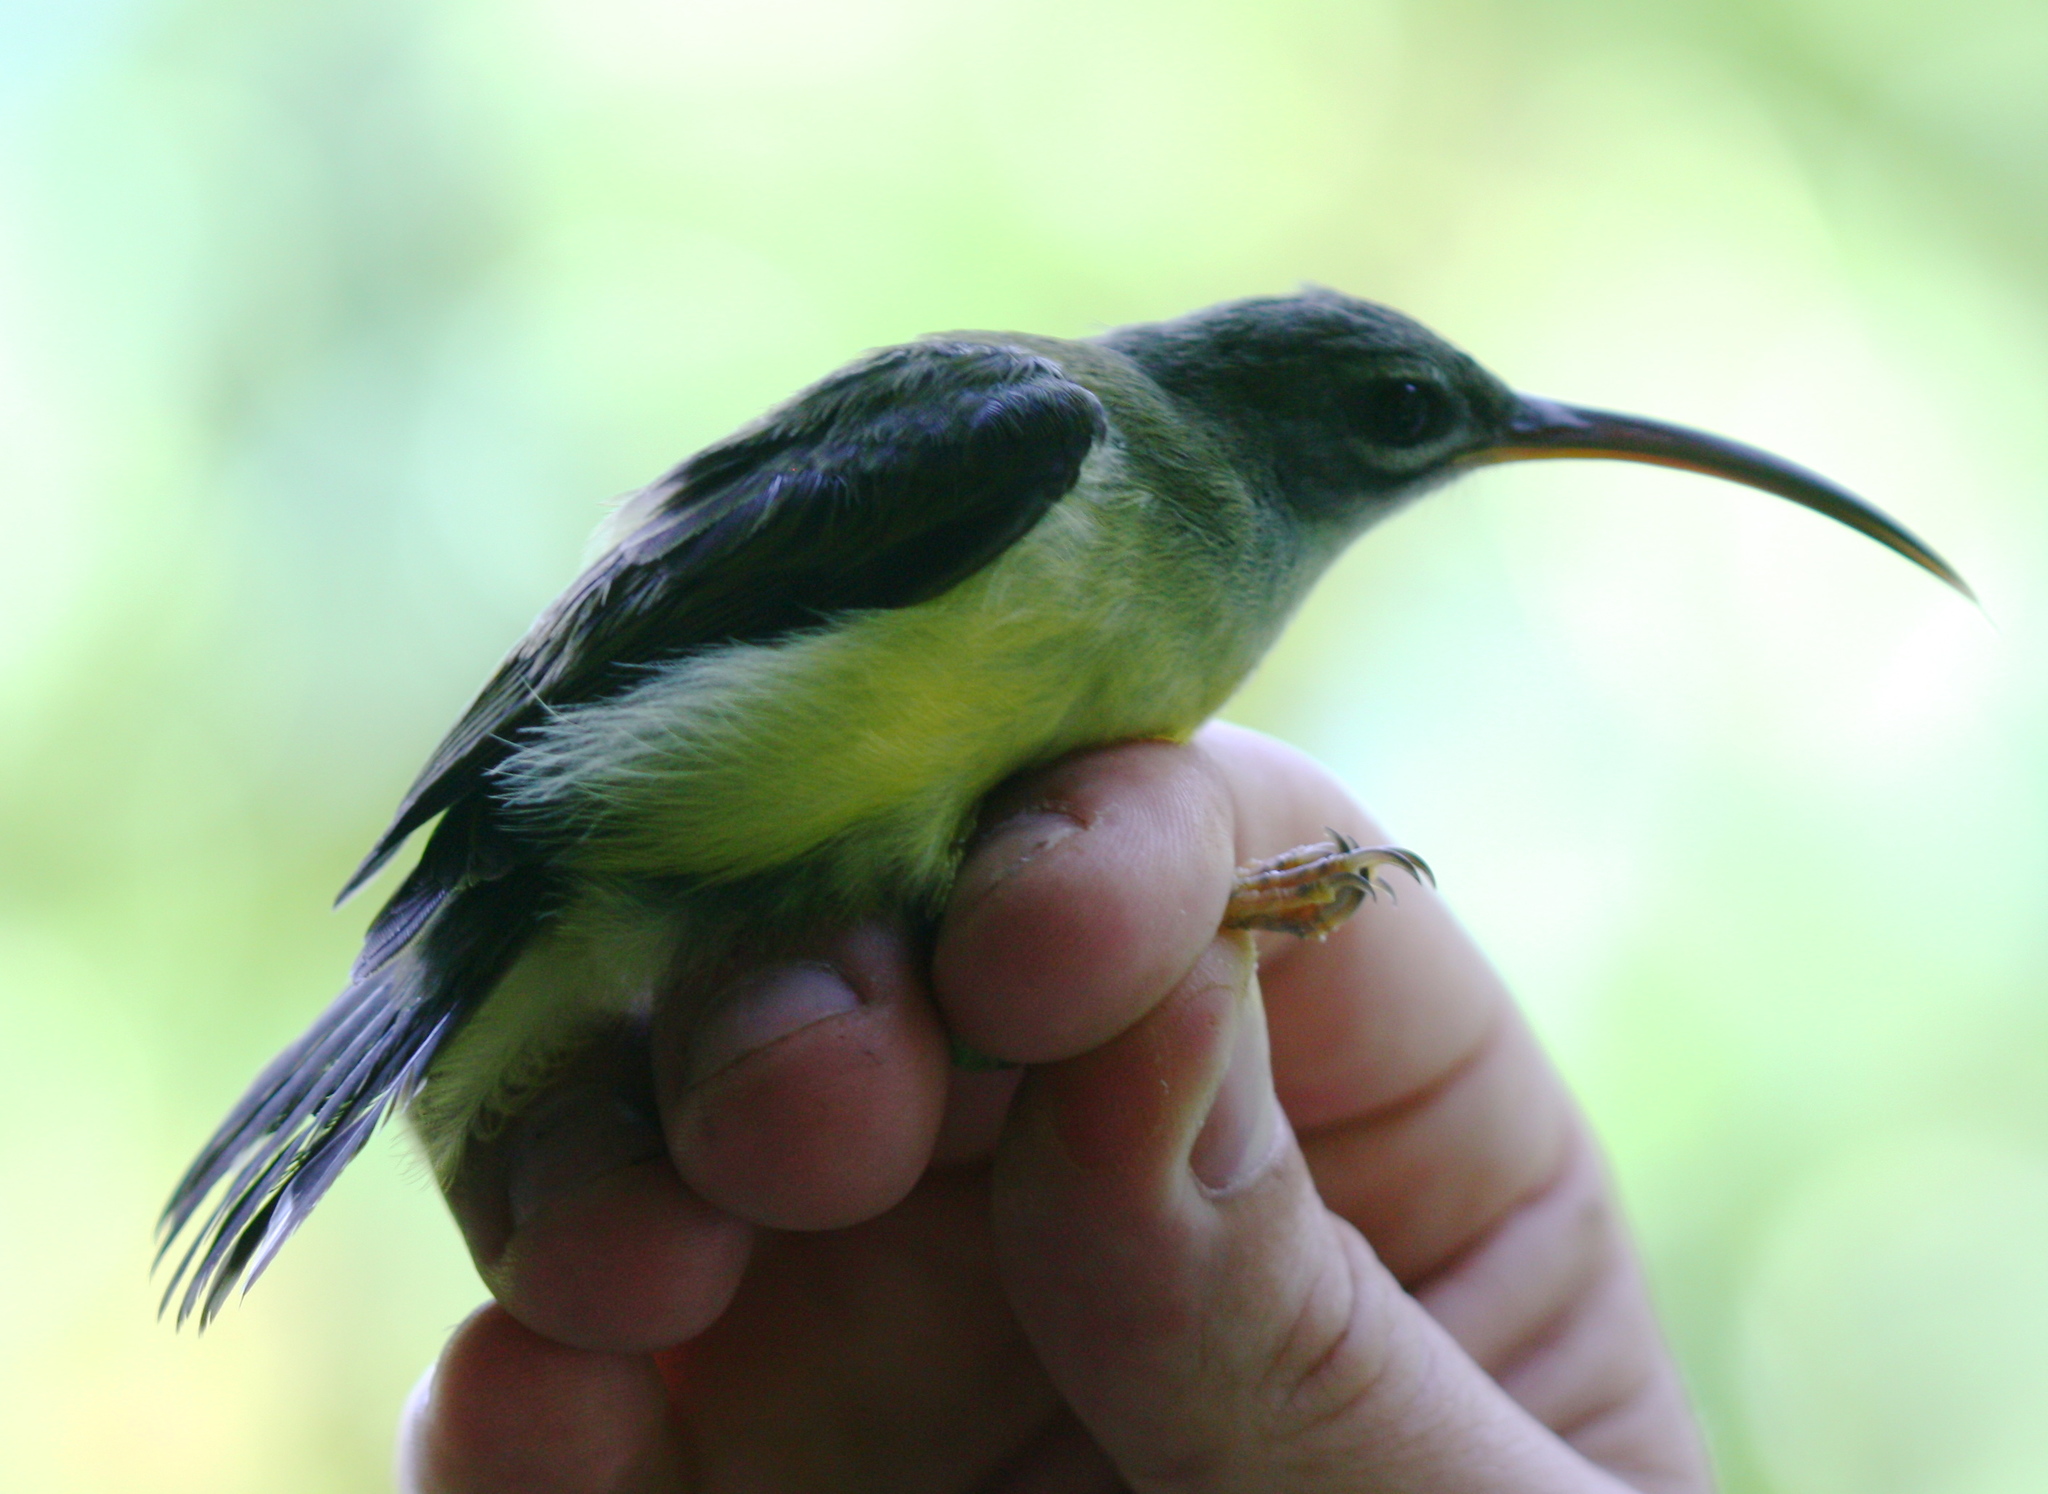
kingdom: Animalia
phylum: Chordata
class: Aves
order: Passeriformes
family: Nectariniidae
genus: Arachnothera
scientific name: Arachnothera longirostra
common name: Little spiderhunter
